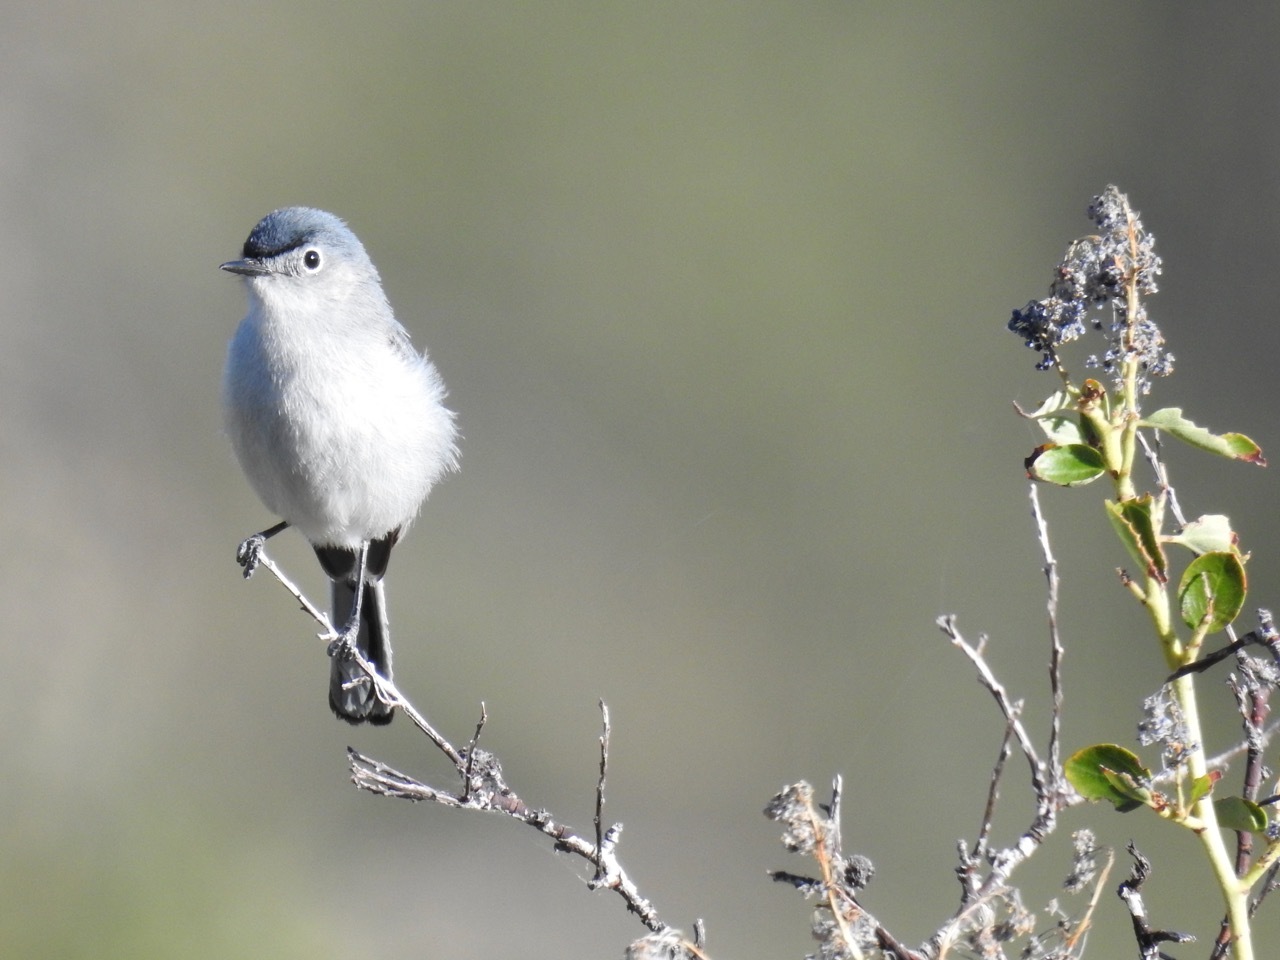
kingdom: Animalia
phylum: Chordata
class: Aves
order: Passeriformes
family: Polioptilidae
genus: Polioptila
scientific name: Polioptila caerulea
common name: Blue-gray gnatcatcher
